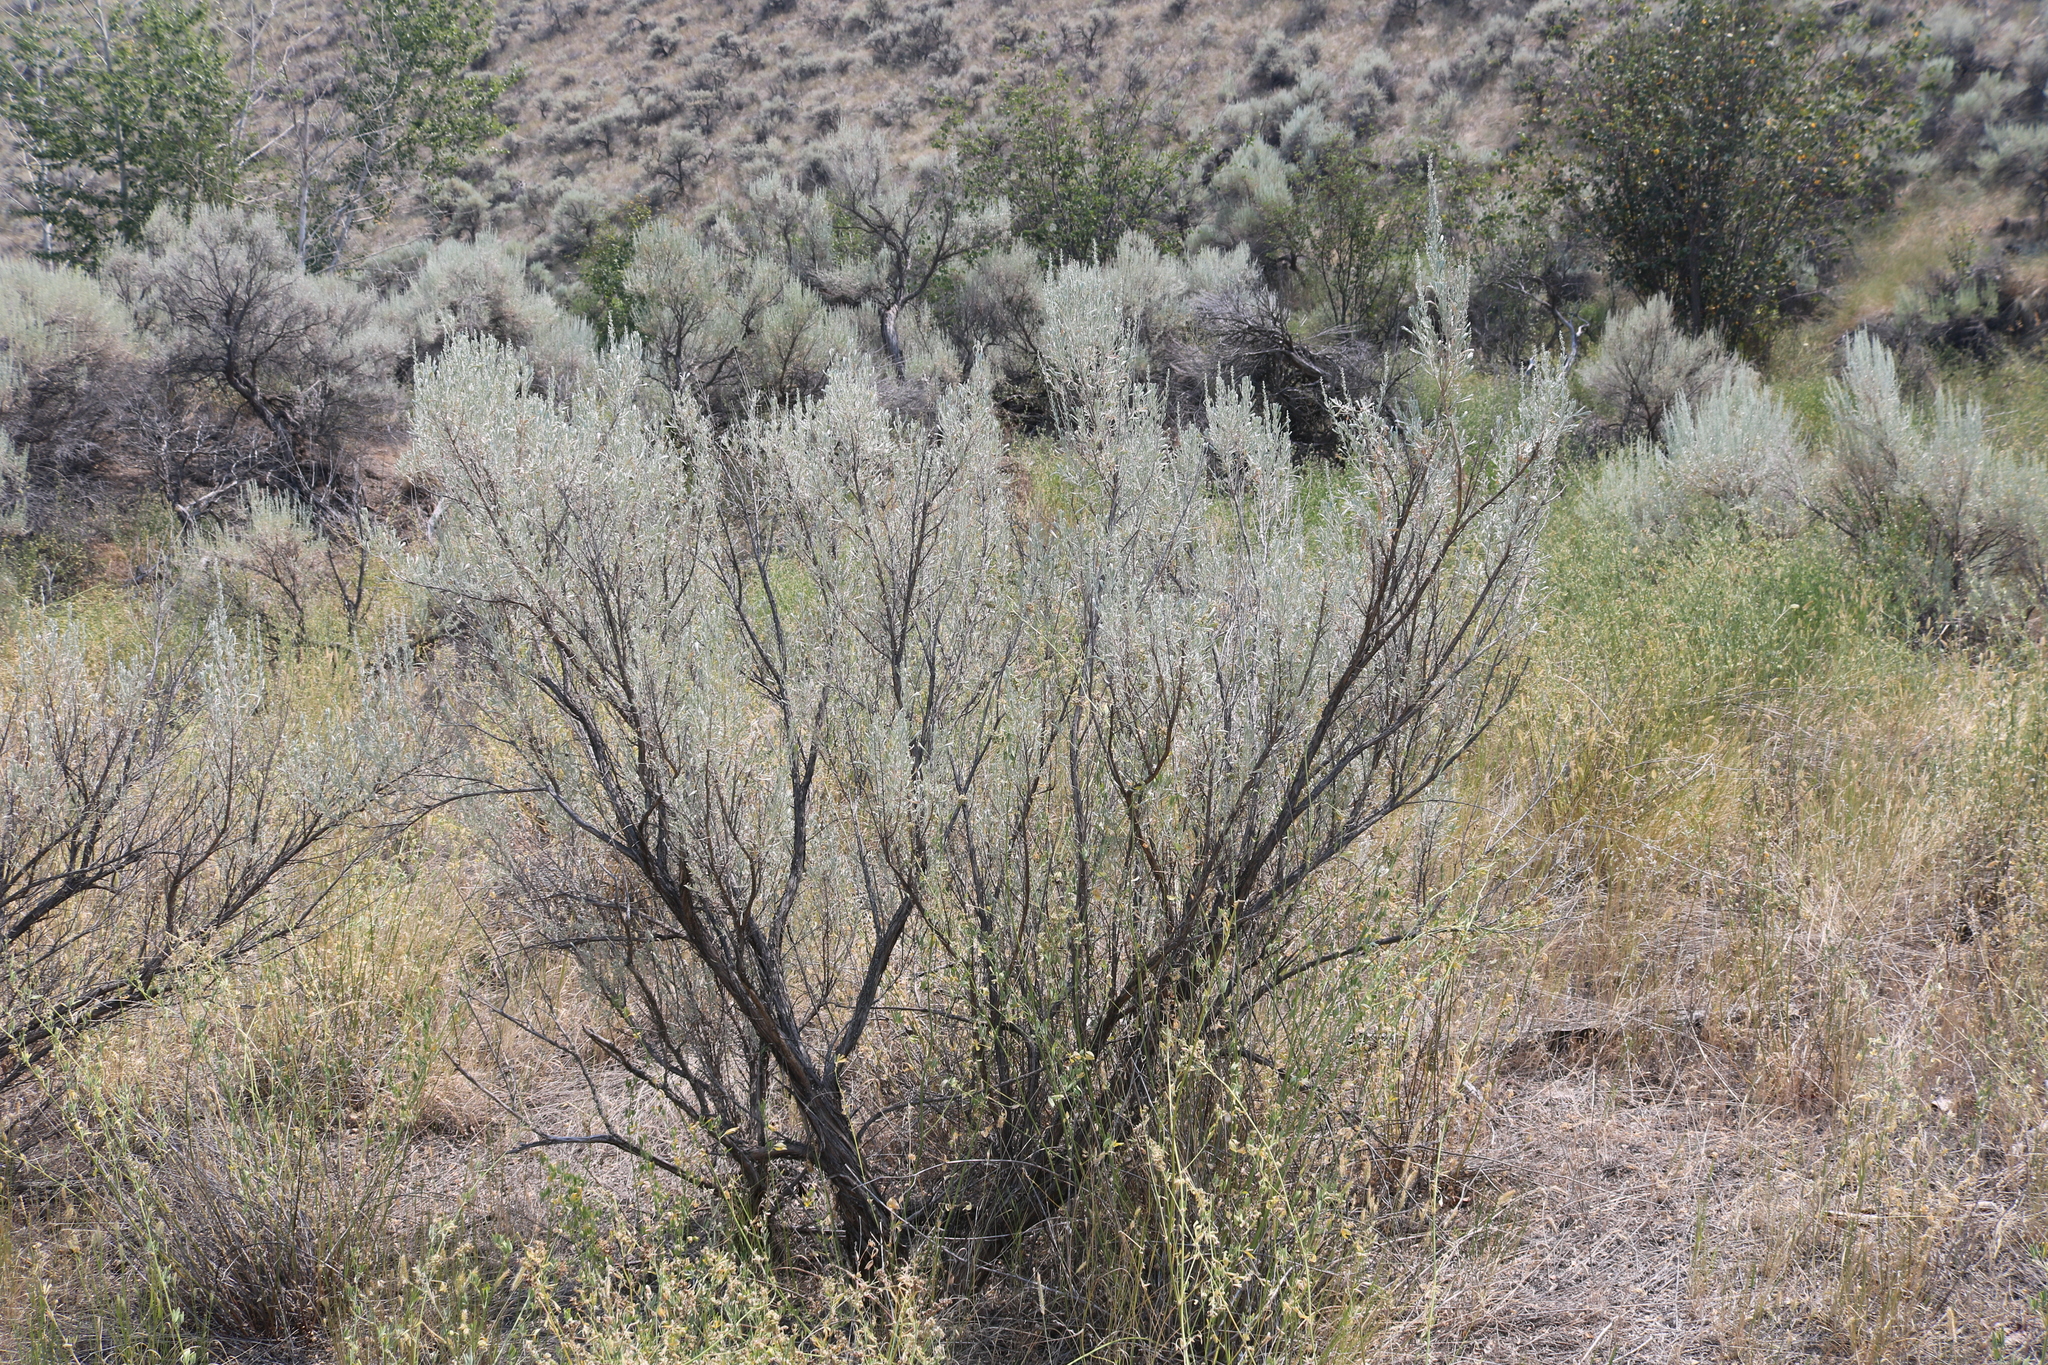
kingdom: Plantae
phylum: Tracheophyta
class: Magnoliopsida
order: Asterales
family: Asteraceae
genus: Artemisia
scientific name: Artemisia tridentata
